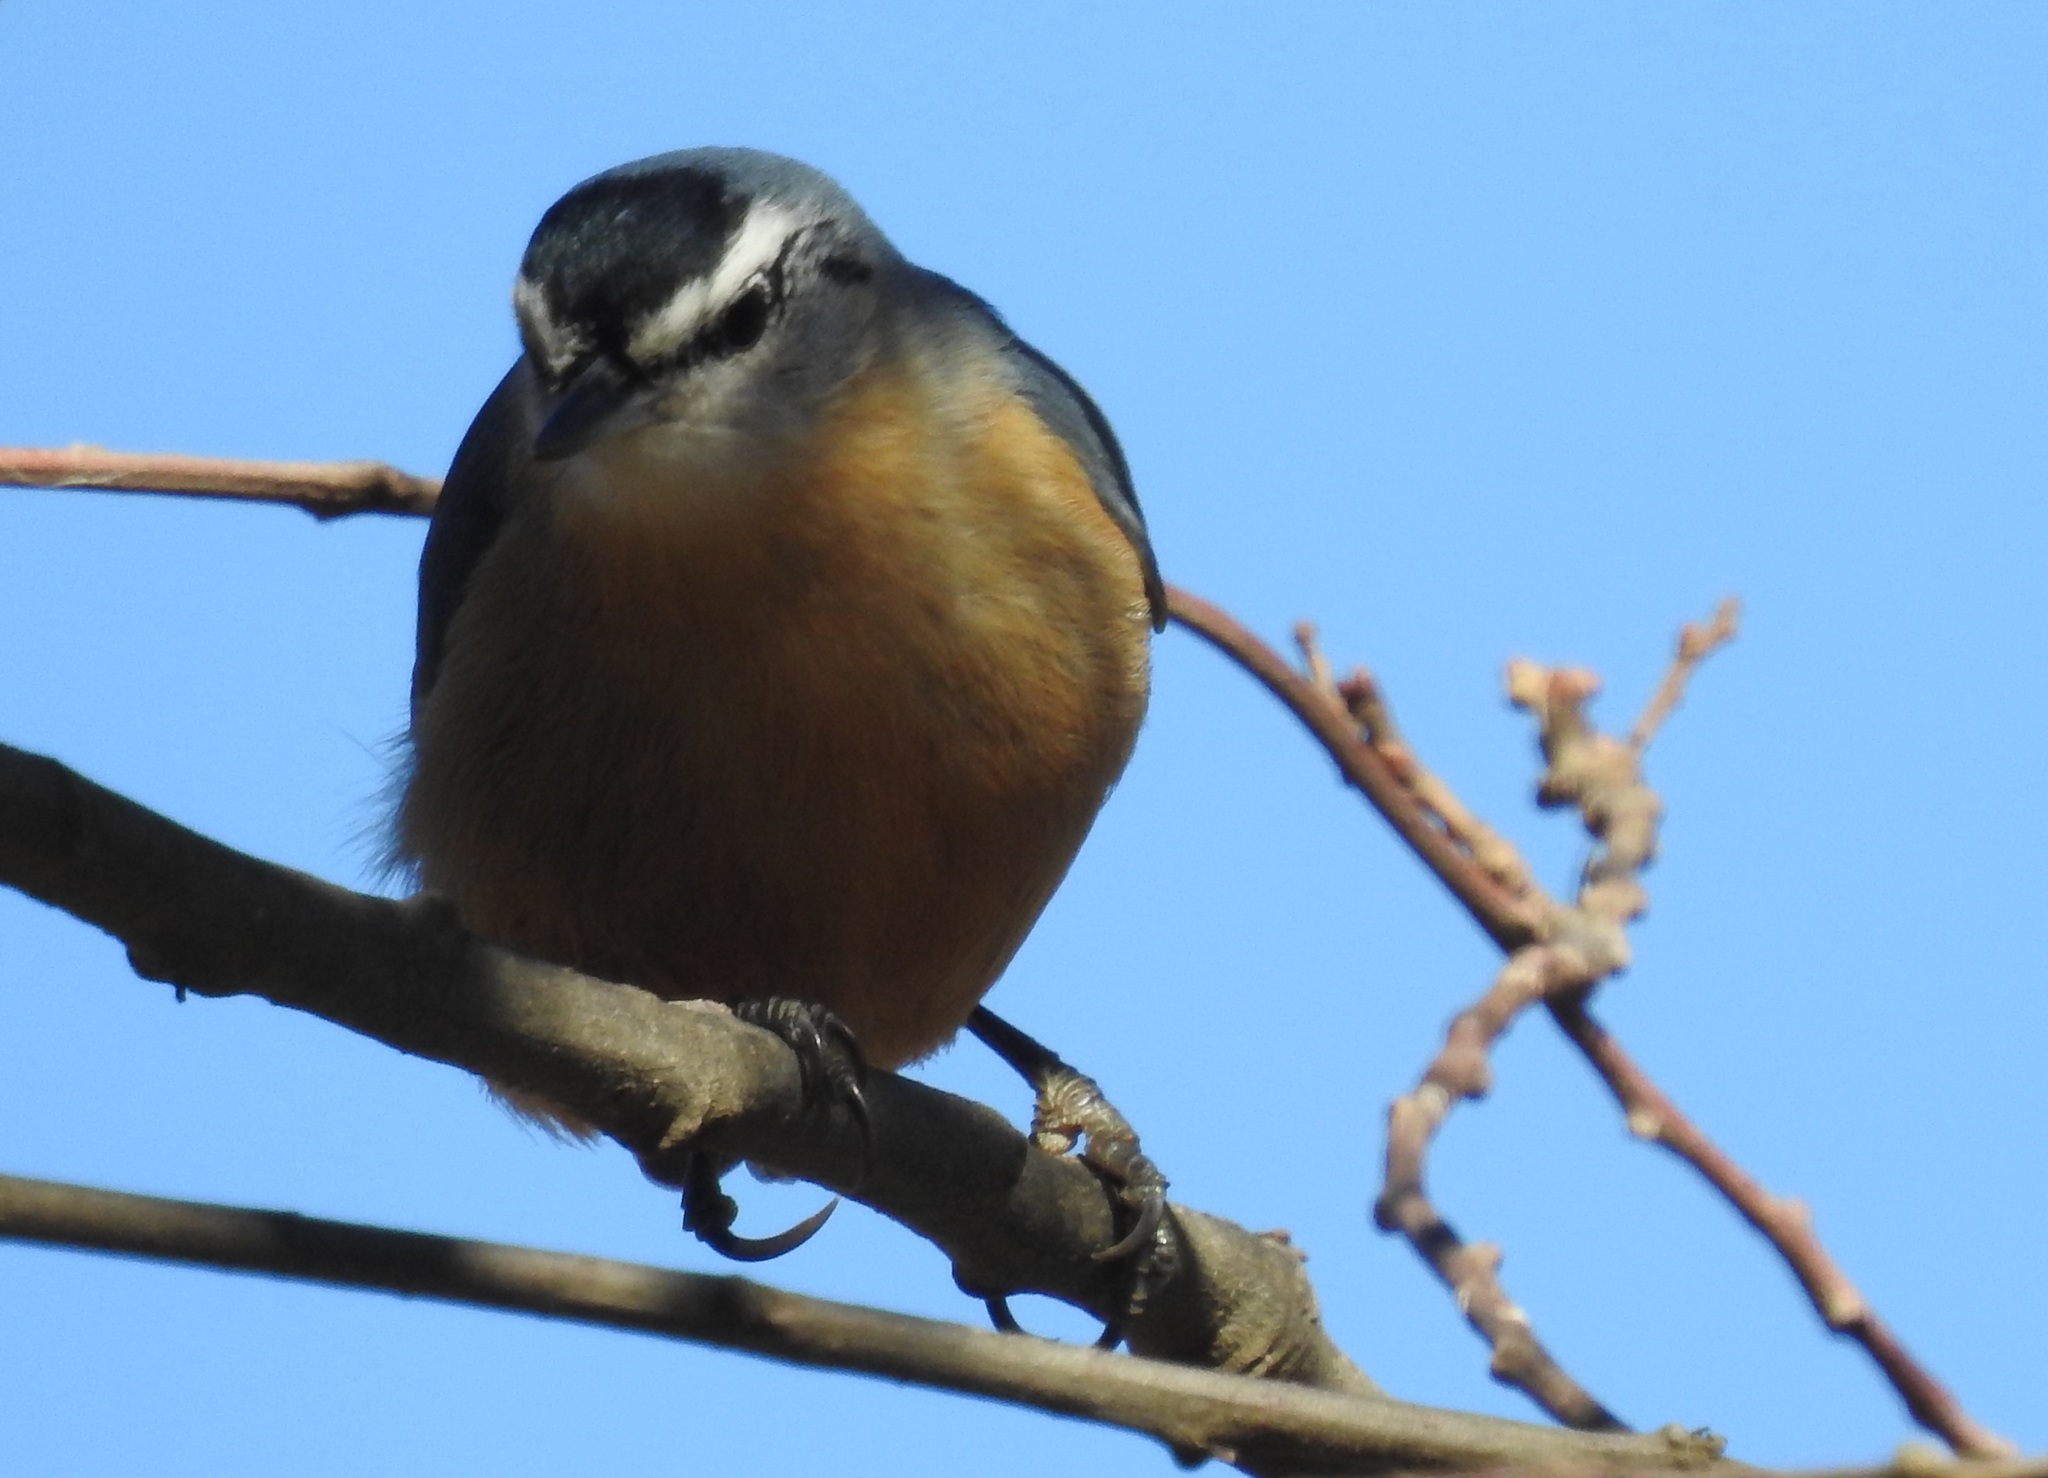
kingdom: Animalia
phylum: Chordata
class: Aves
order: Passeriformes
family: Sittidae
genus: Sitta
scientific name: Sitta ledanti
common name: Algerian nuthatch
